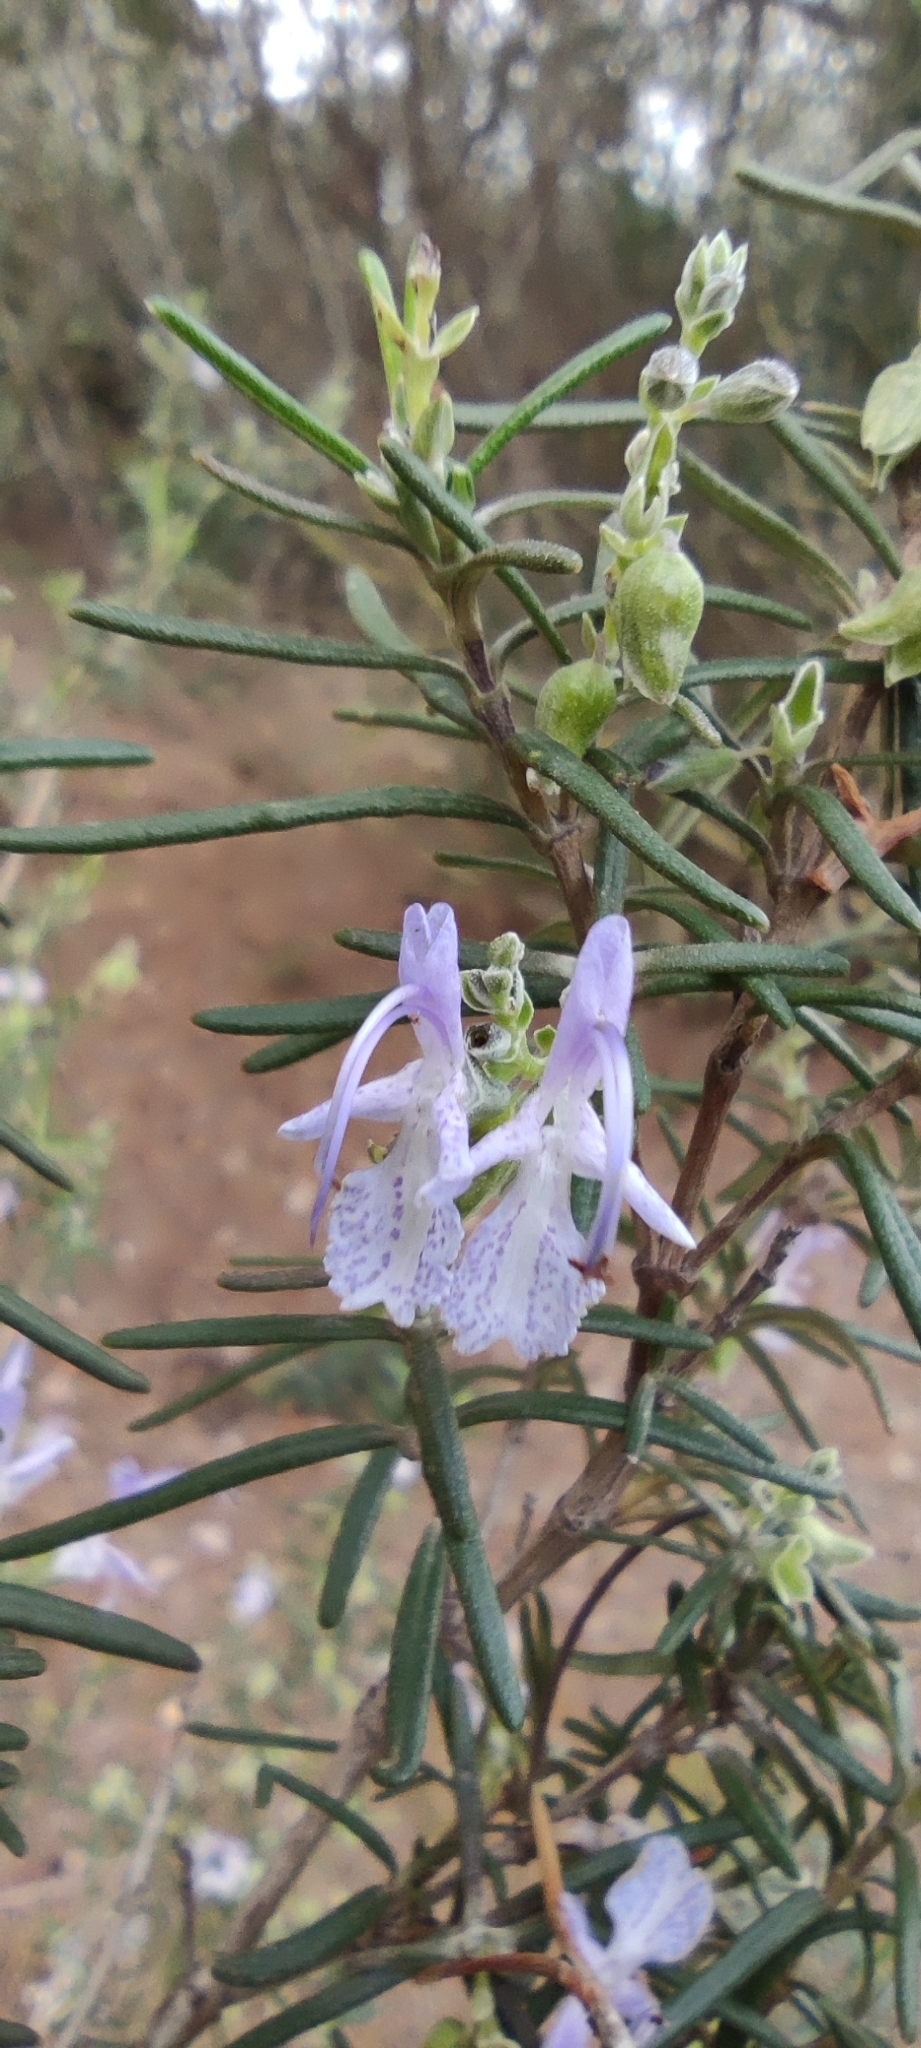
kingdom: Plantae
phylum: Tracheophyta
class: Magnoliopsida
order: Lamiales
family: Lamiaceae
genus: Salvia
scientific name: Salvia rosmarinus
